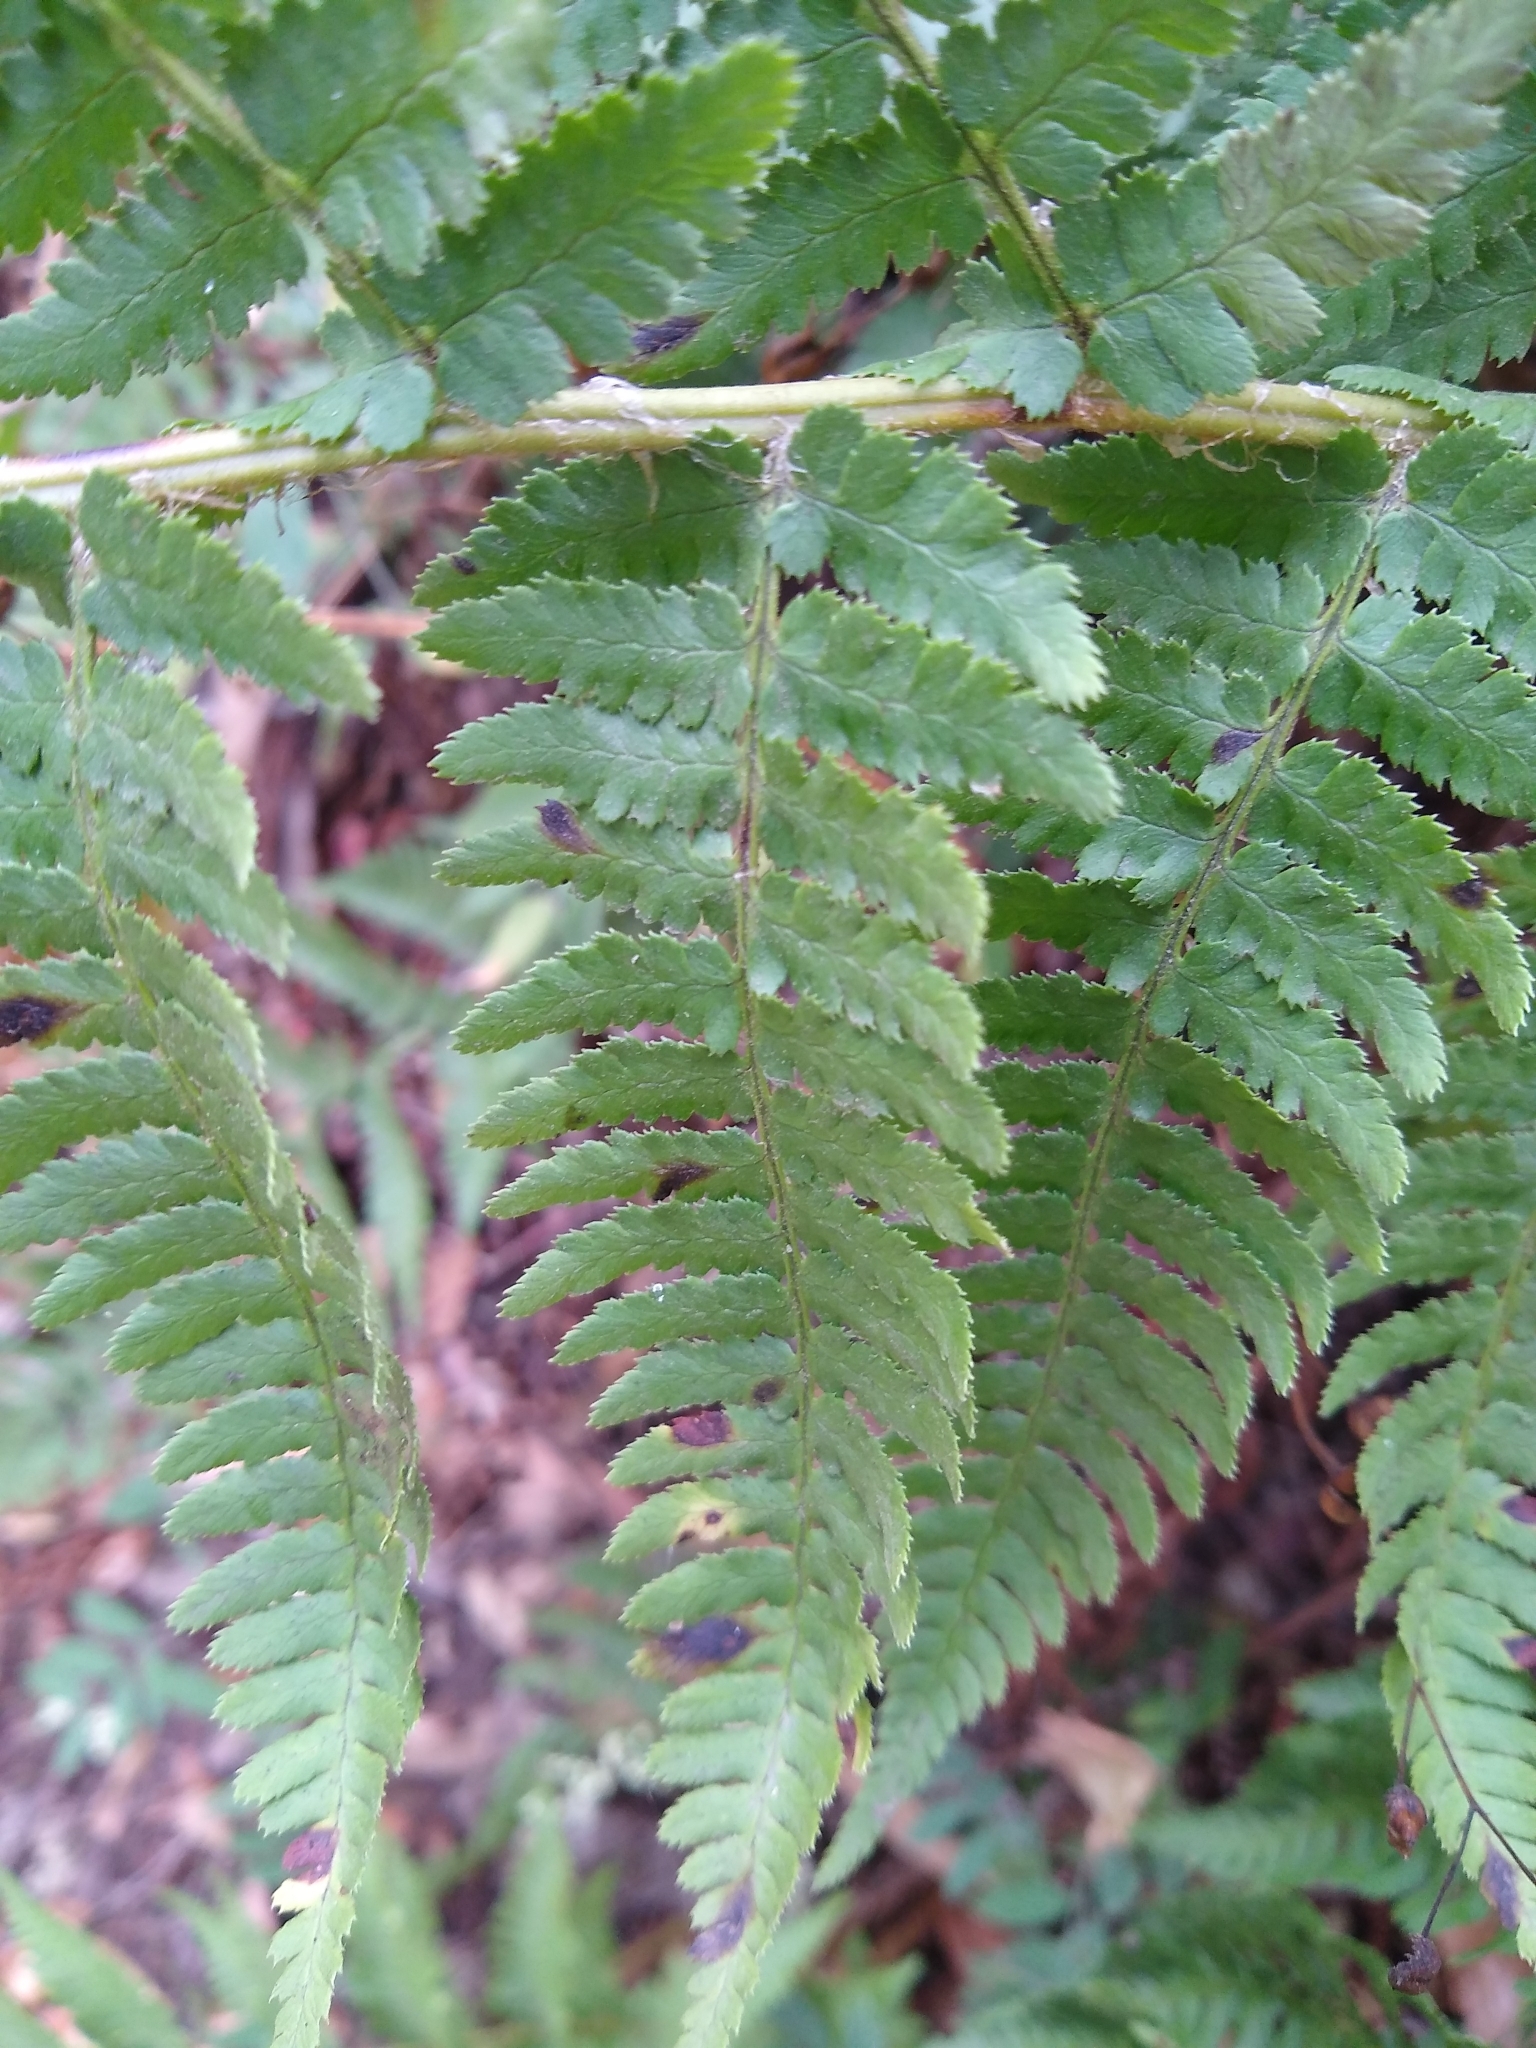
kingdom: Plantae
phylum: Tracheophyta
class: Polypodiopsida
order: Polypodiales
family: Dryopteridaceae
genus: Dryopteris
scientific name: Dryopteris arguta
